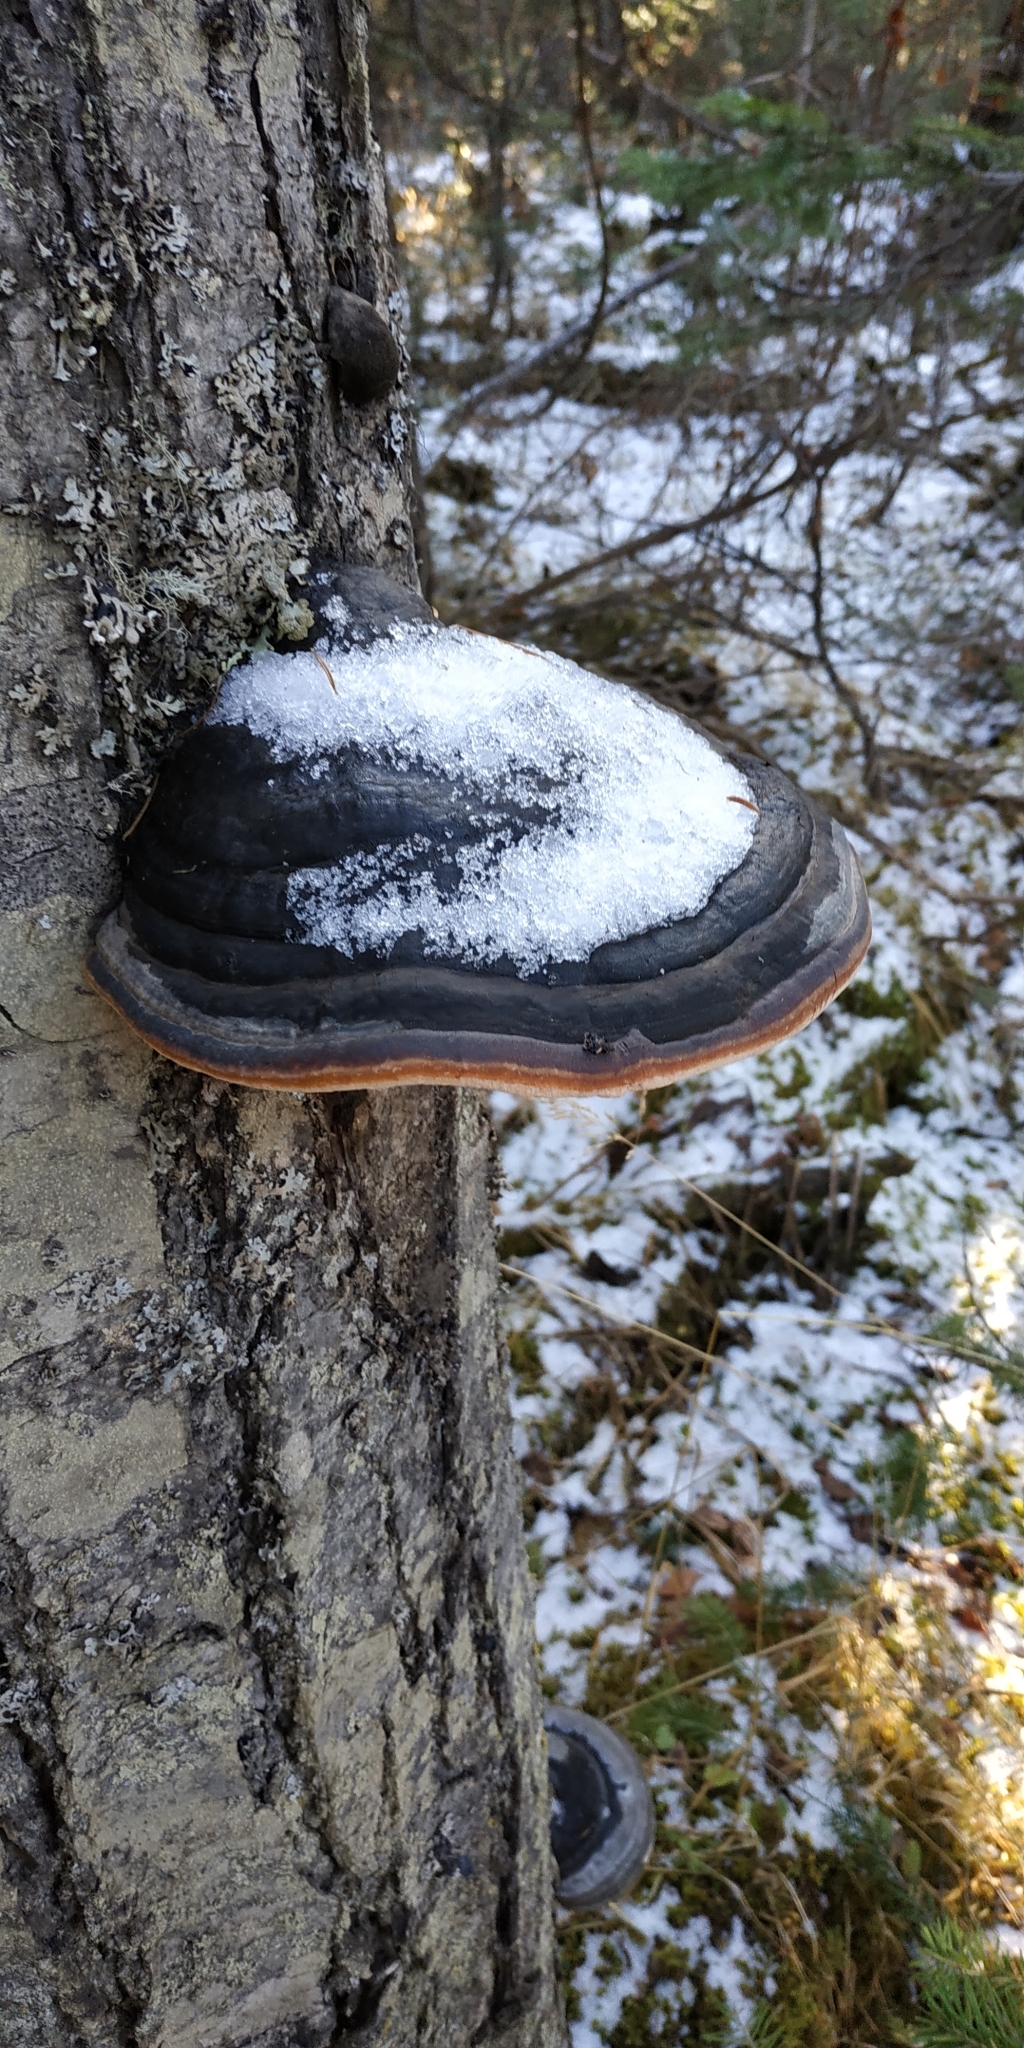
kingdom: Fungi
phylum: Basidiomycota
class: Agaricomycetes
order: Polyporales
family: Fomitopsidaceae
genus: Fomitopsis
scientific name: Fomitopsis pinicola
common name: Red-belted bracket
